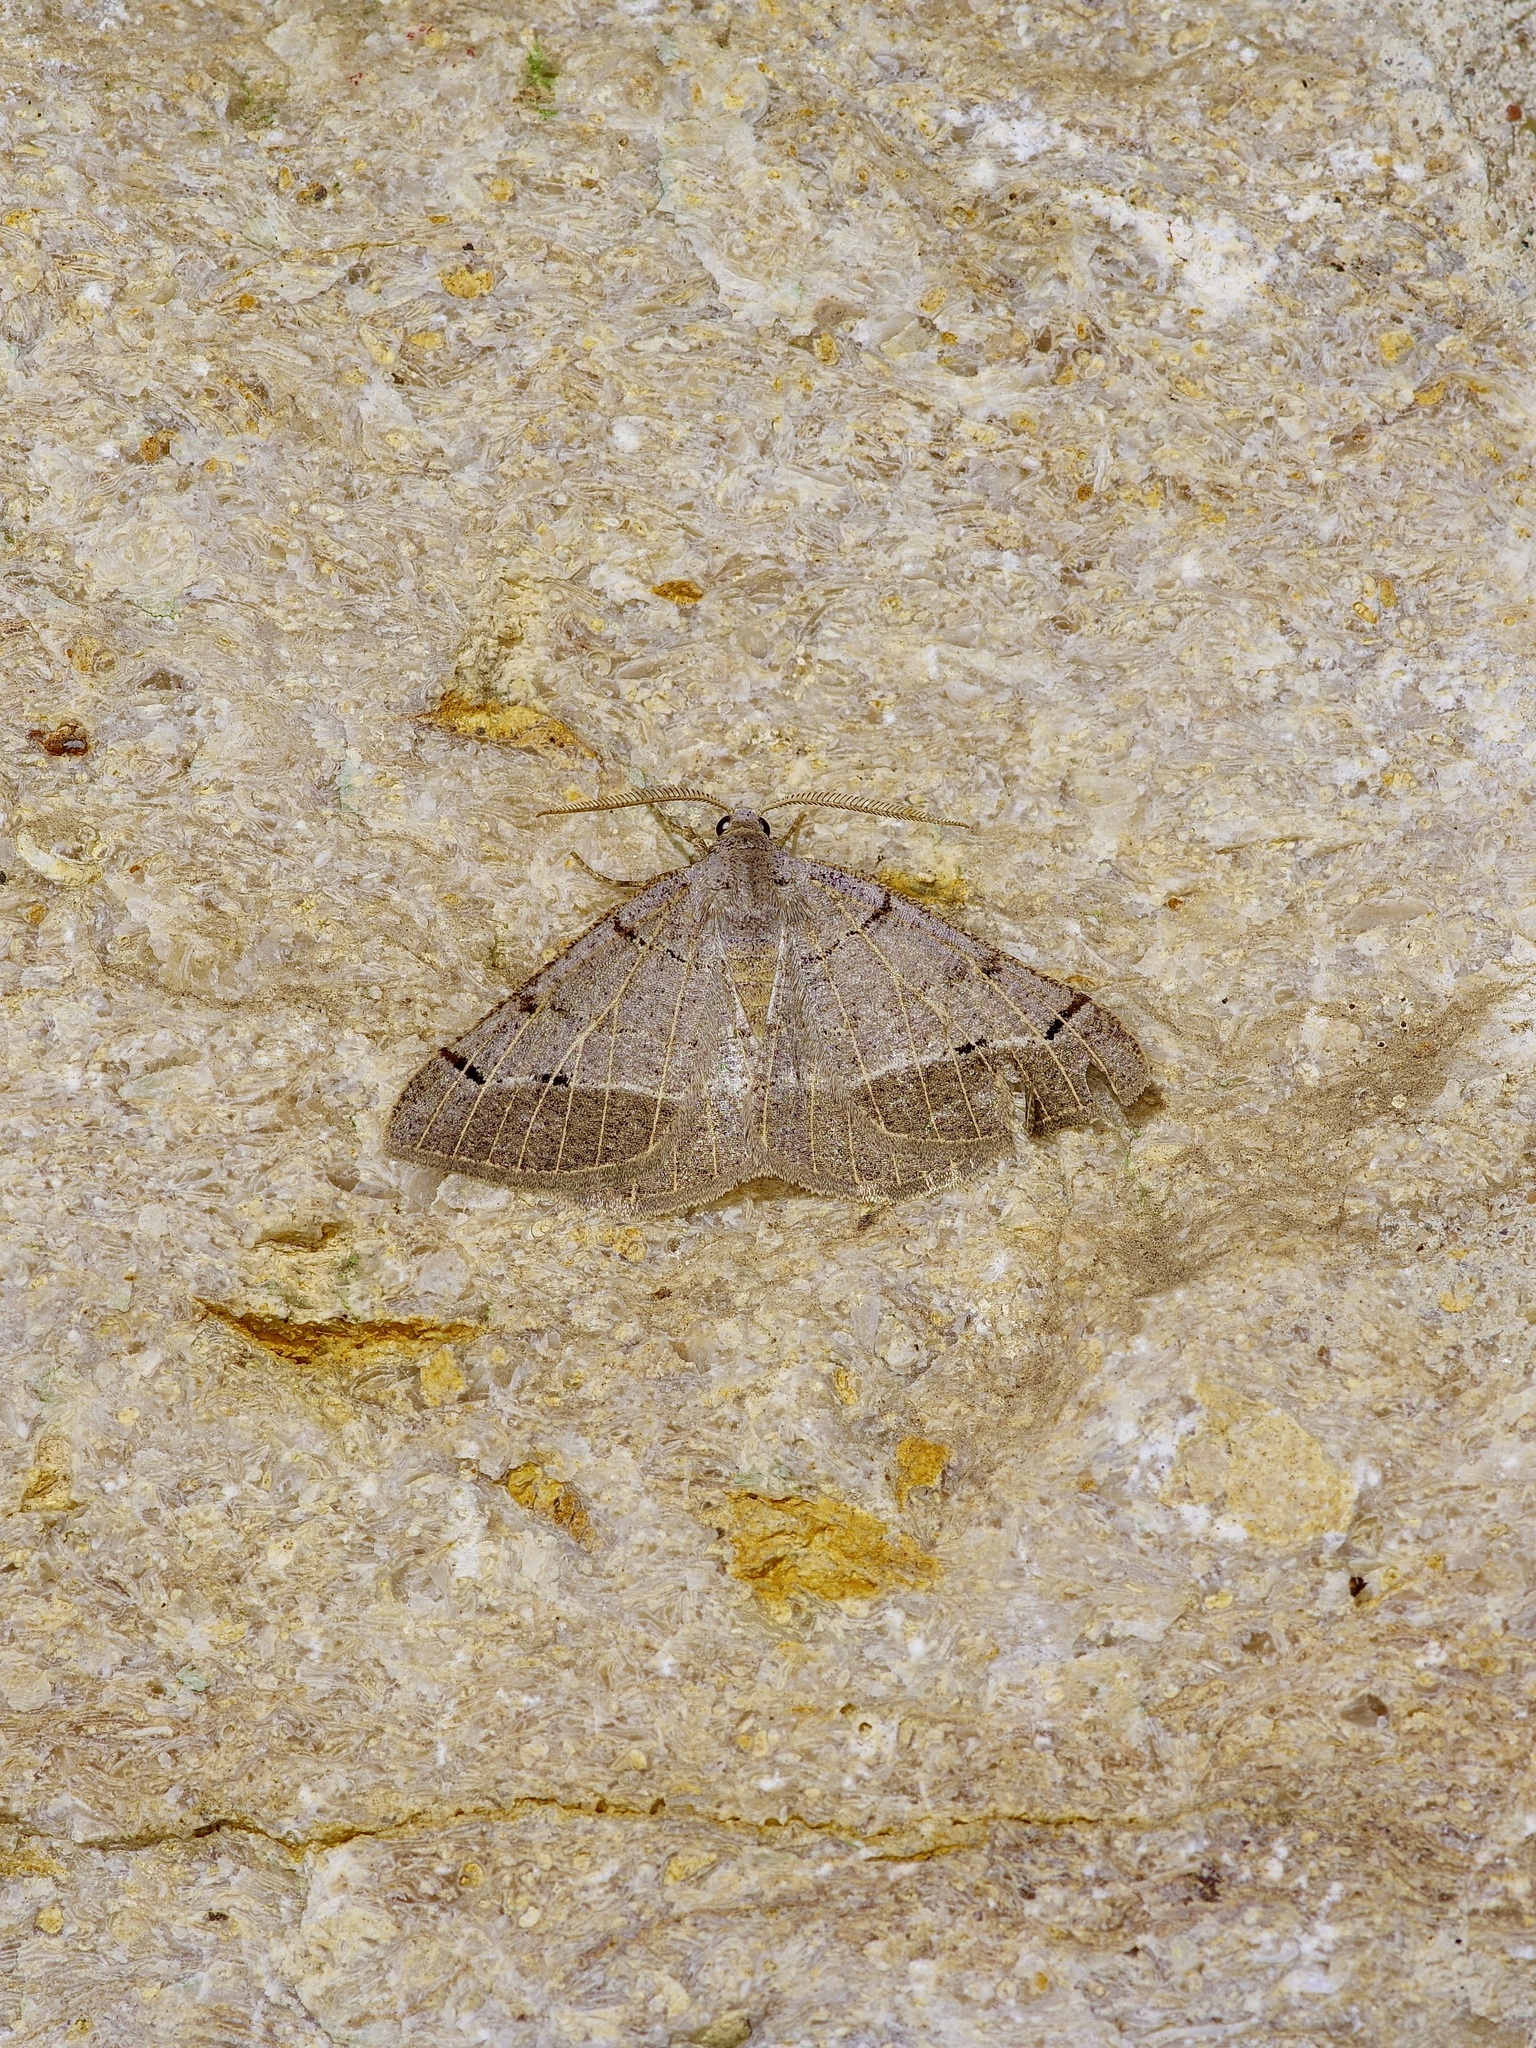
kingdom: Animalia
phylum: Arthropoda
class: Insecta
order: Lepidoptera
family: Geometridae
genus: Isturgia
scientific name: Isturgia dislocaria
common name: Pale-viened enconista
